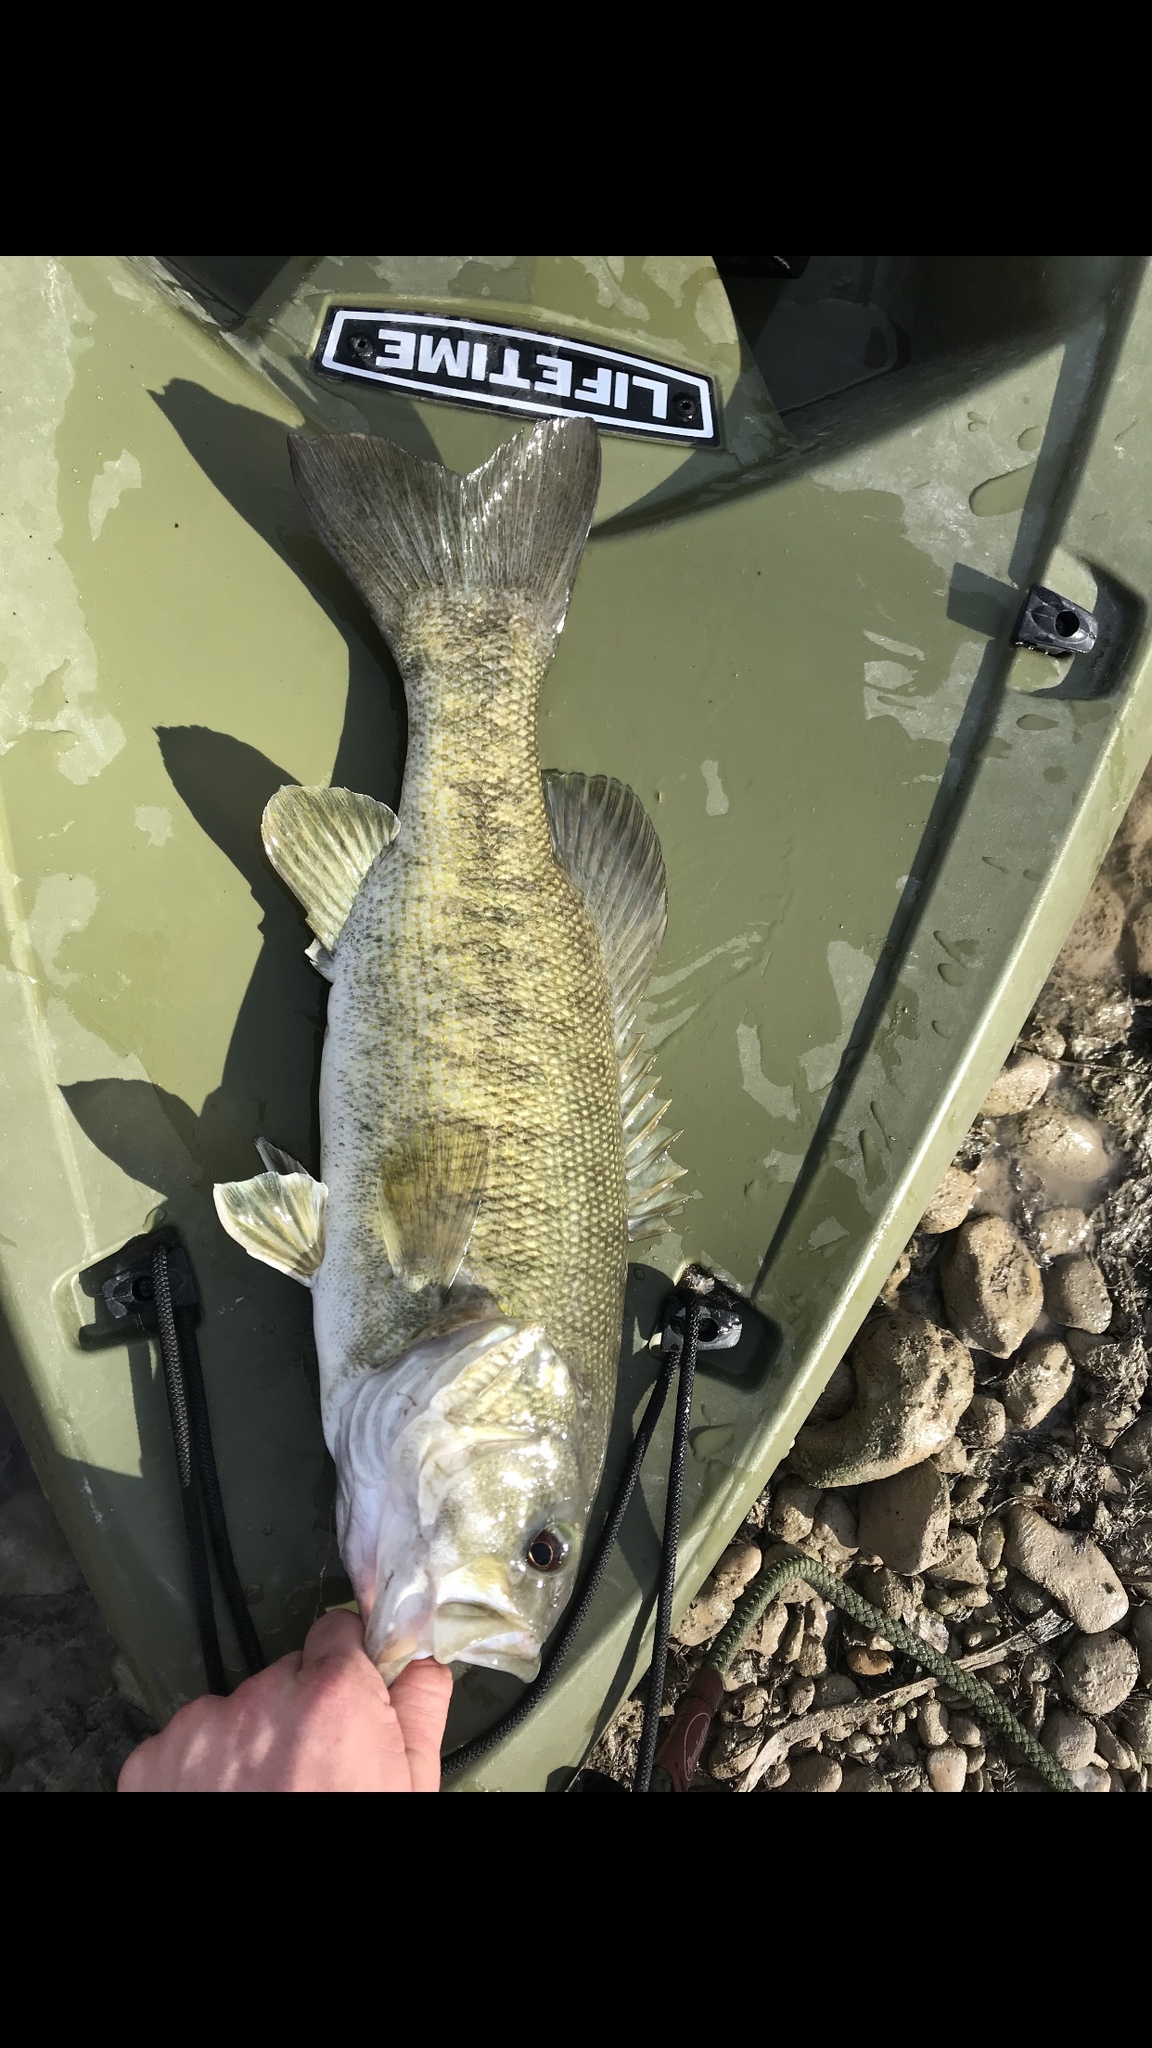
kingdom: Animalia
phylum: Chordata
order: Perciformes
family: Centrarchidae
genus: Micropterus
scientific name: Micropterus dolomieu
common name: Smallmouth bass
